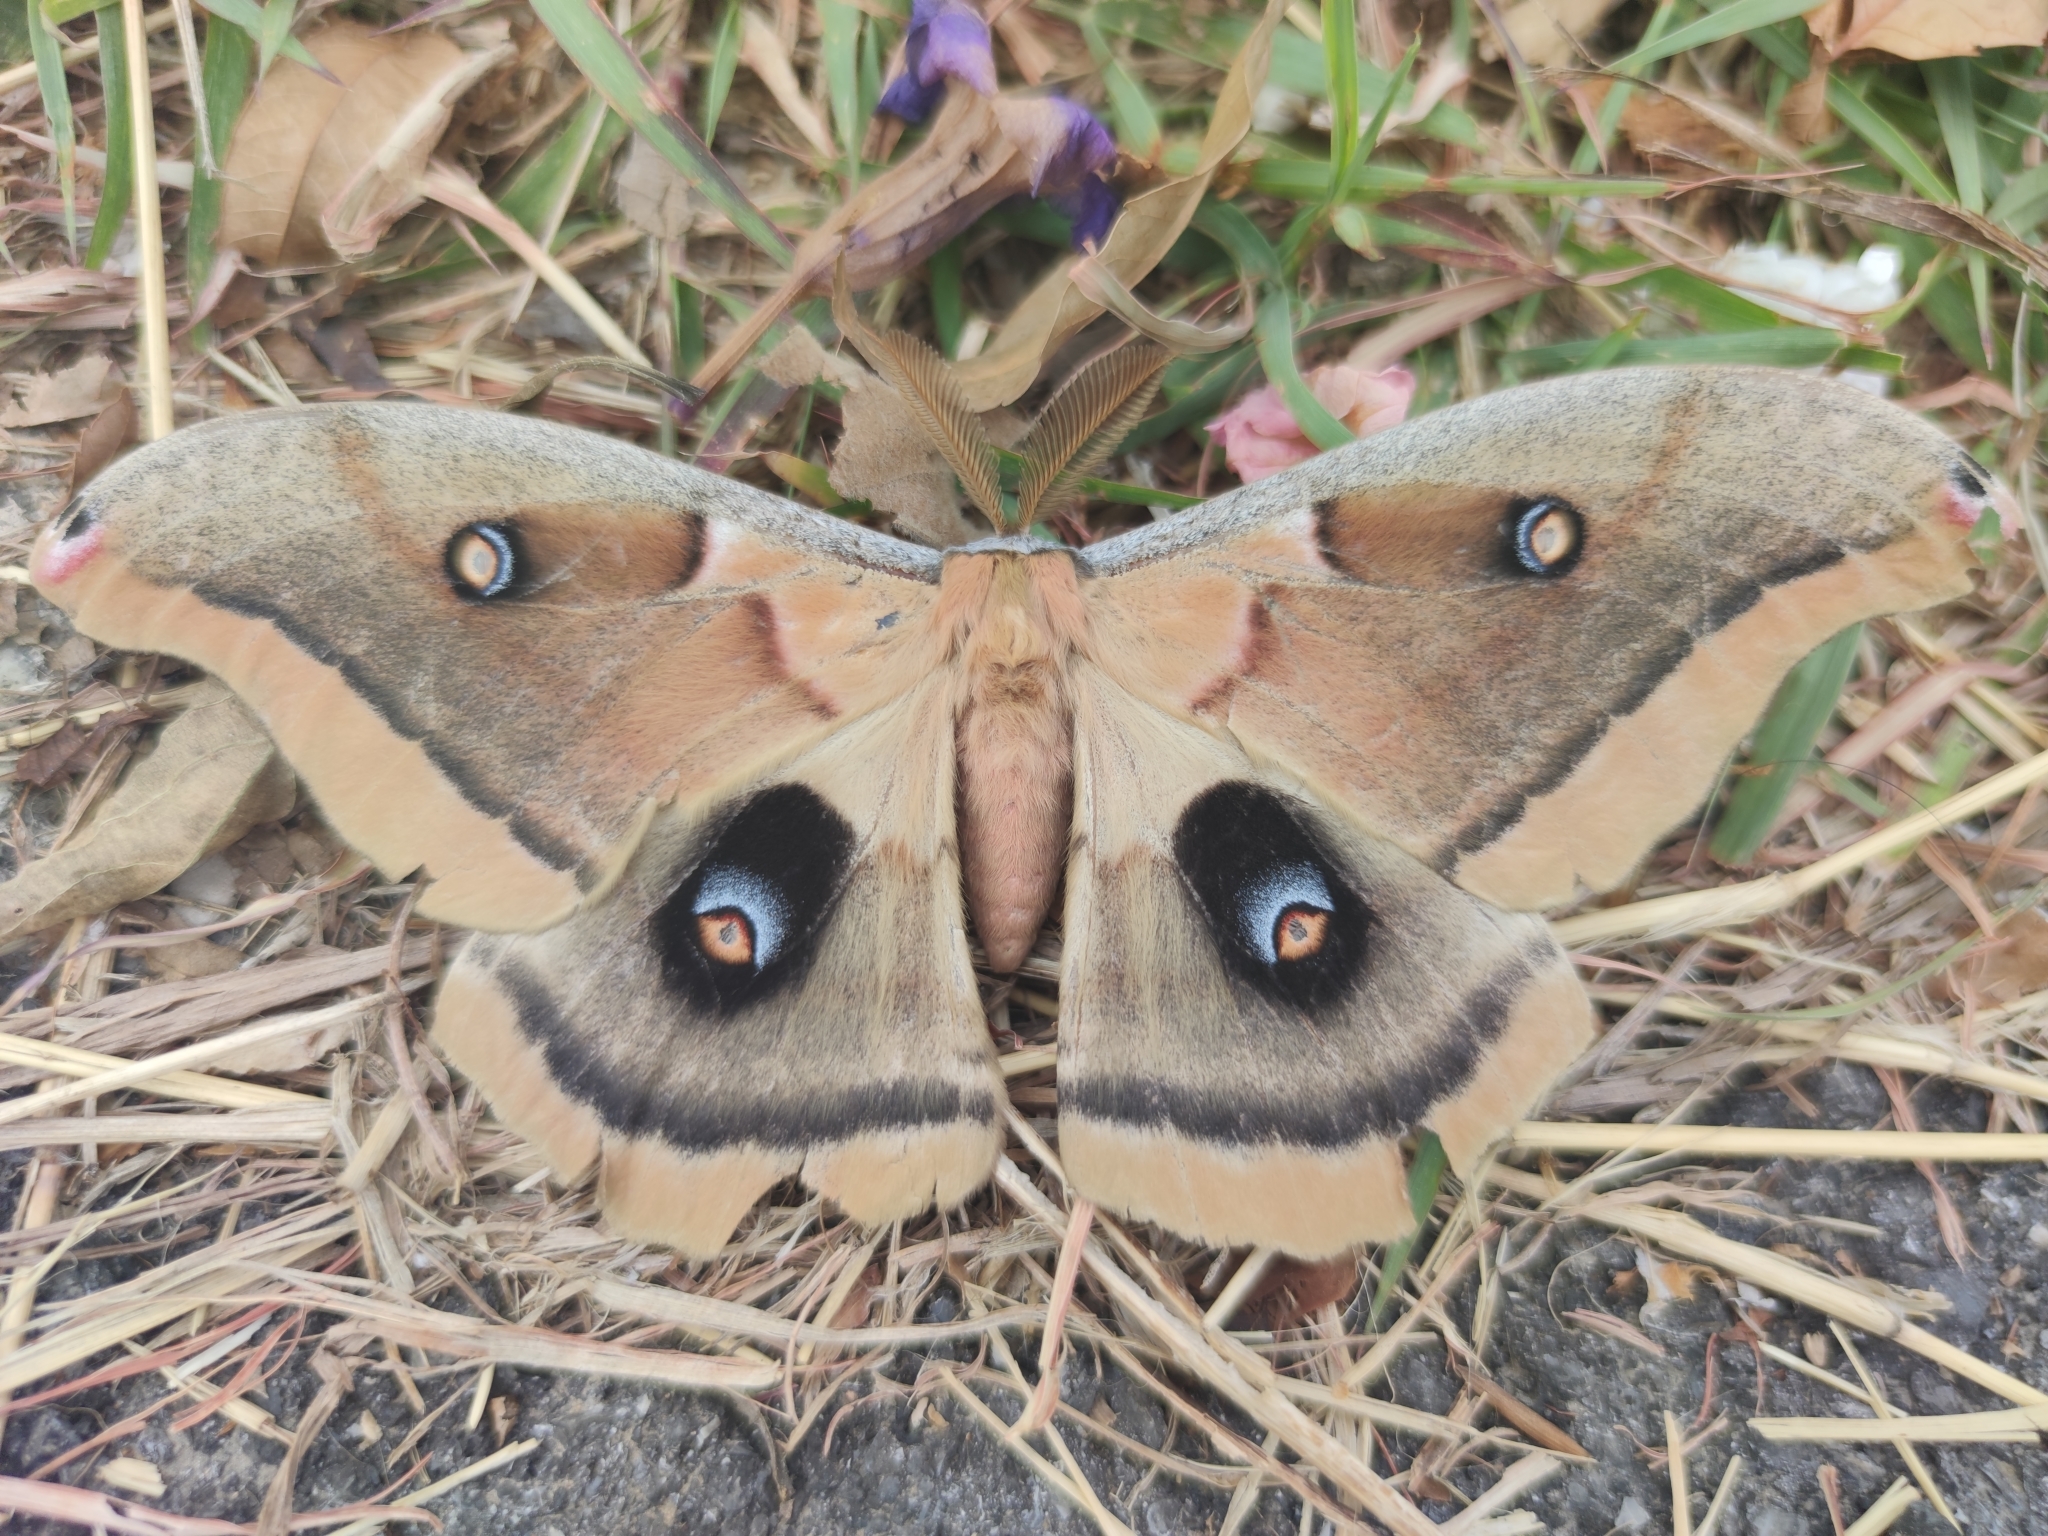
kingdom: Animalia
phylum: Arthropoda
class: Insecta
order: Lepidoptera
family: Saturniidae
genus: Antheraea
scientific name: Antheraea oculea
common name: Arizona polyphemus moth
